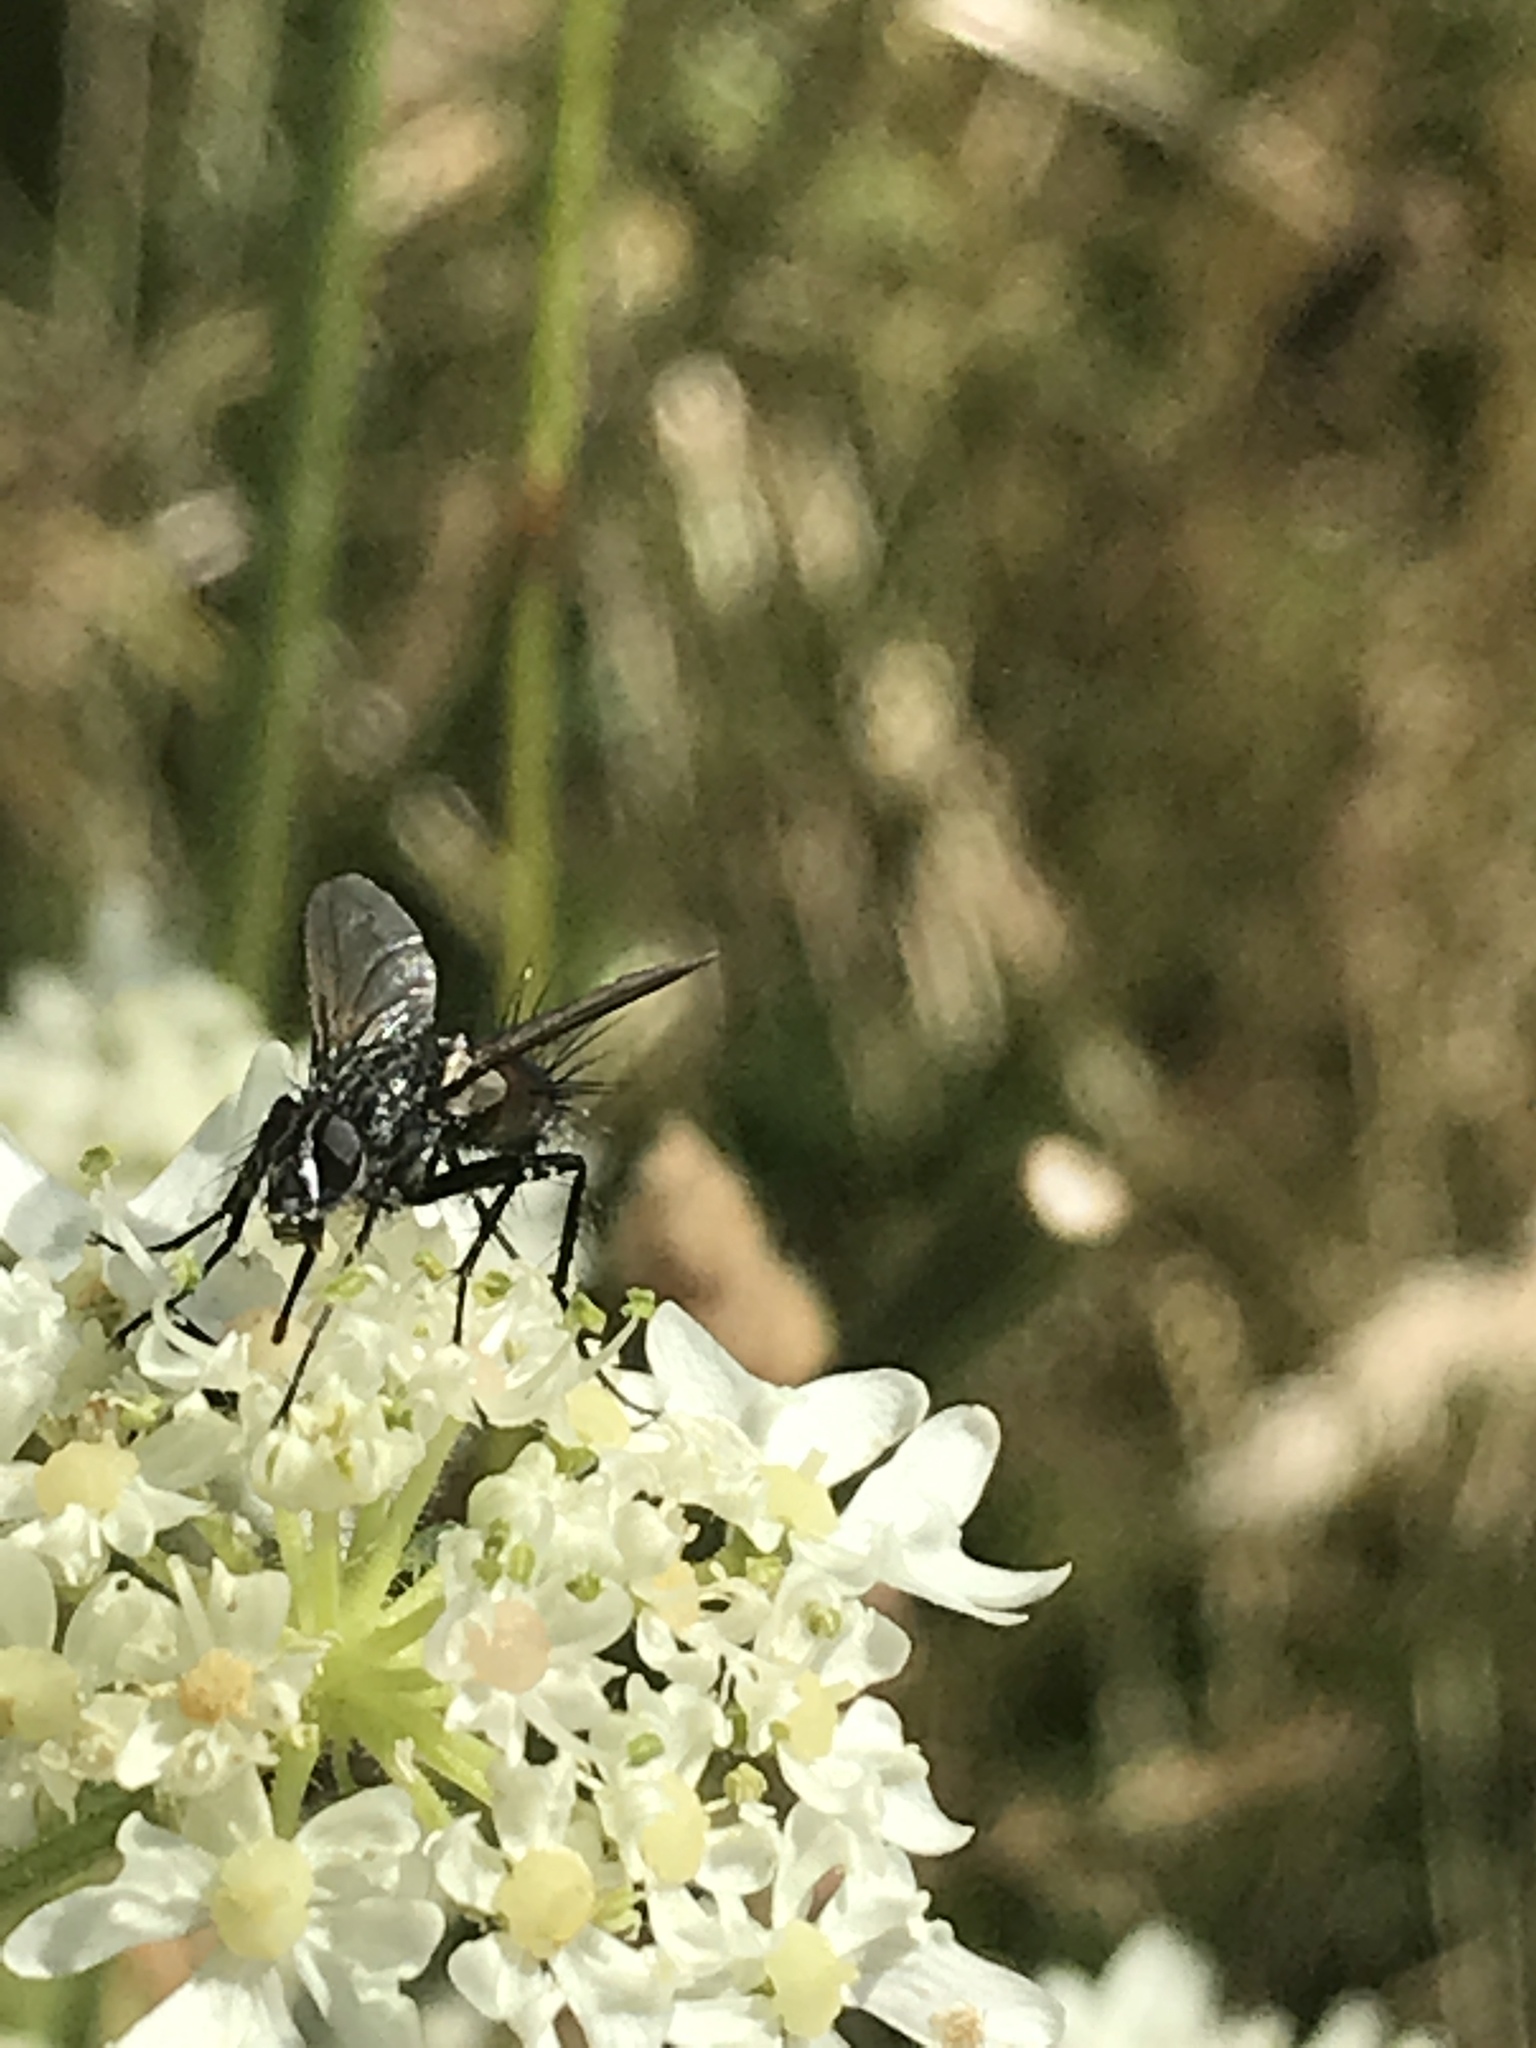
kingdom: Animalia
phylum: Arthropoda
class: Insecta
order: Diptera
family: Tachinidae
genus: Eriothrix
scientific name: Eriothrix rufomaculatus
